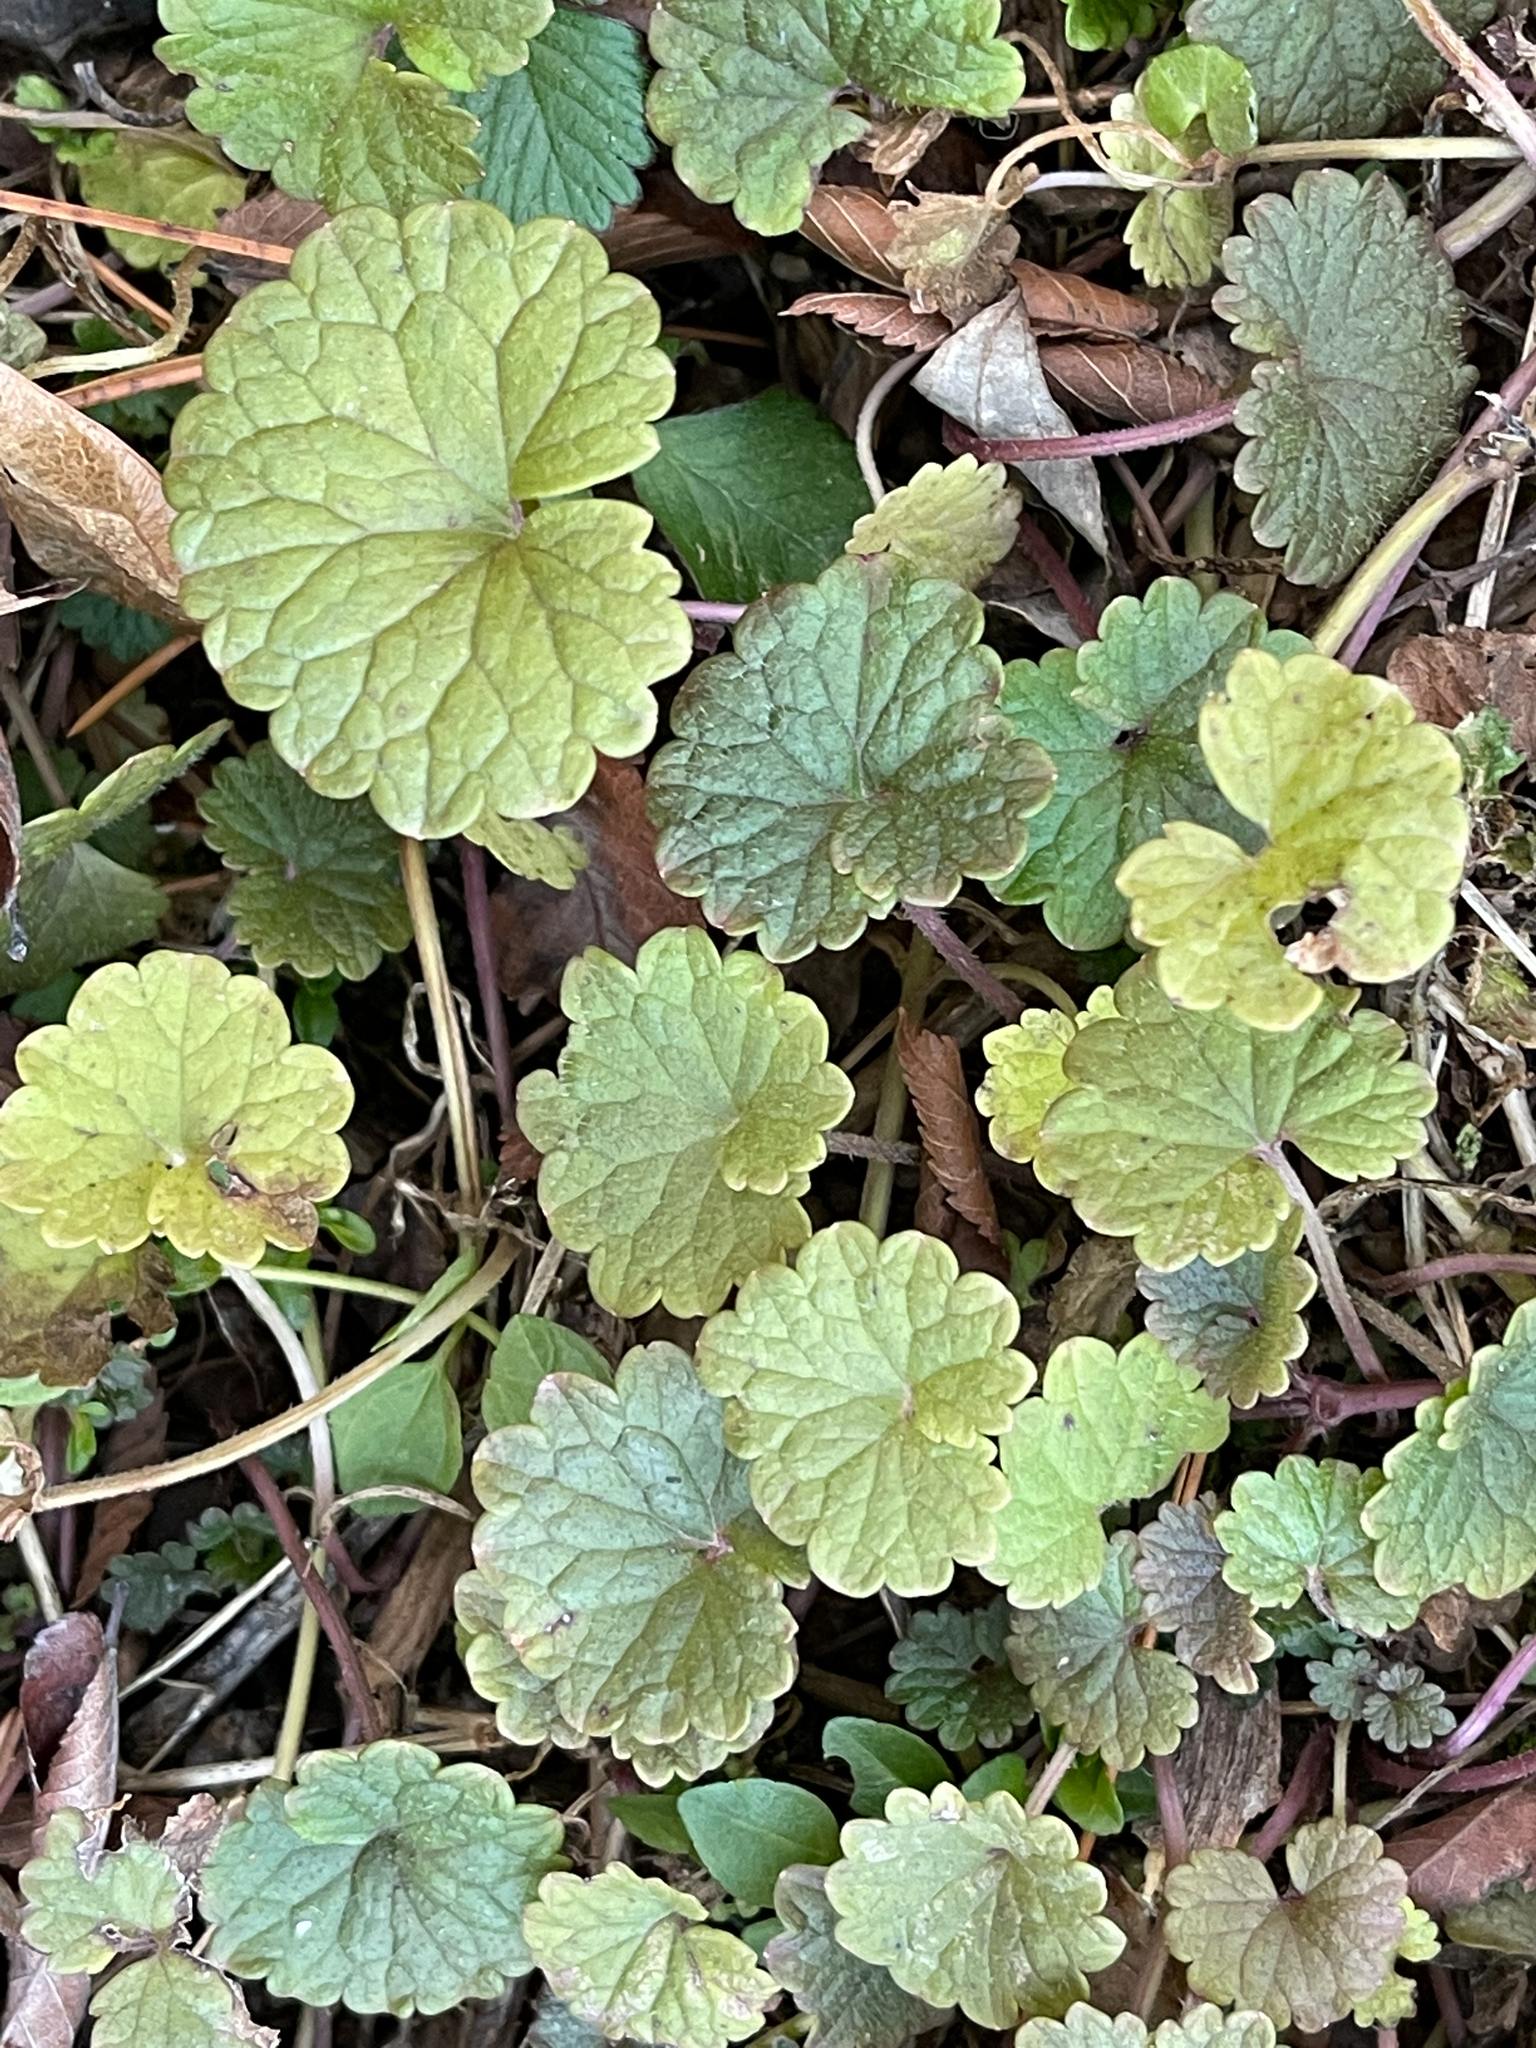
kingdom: Plantae
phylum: Tracheophyta
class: Magnoliopsida
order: Lamiales
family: Lamiaceae
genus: Glechoma
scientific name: Glechoma hederacea
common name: Ground ivy
